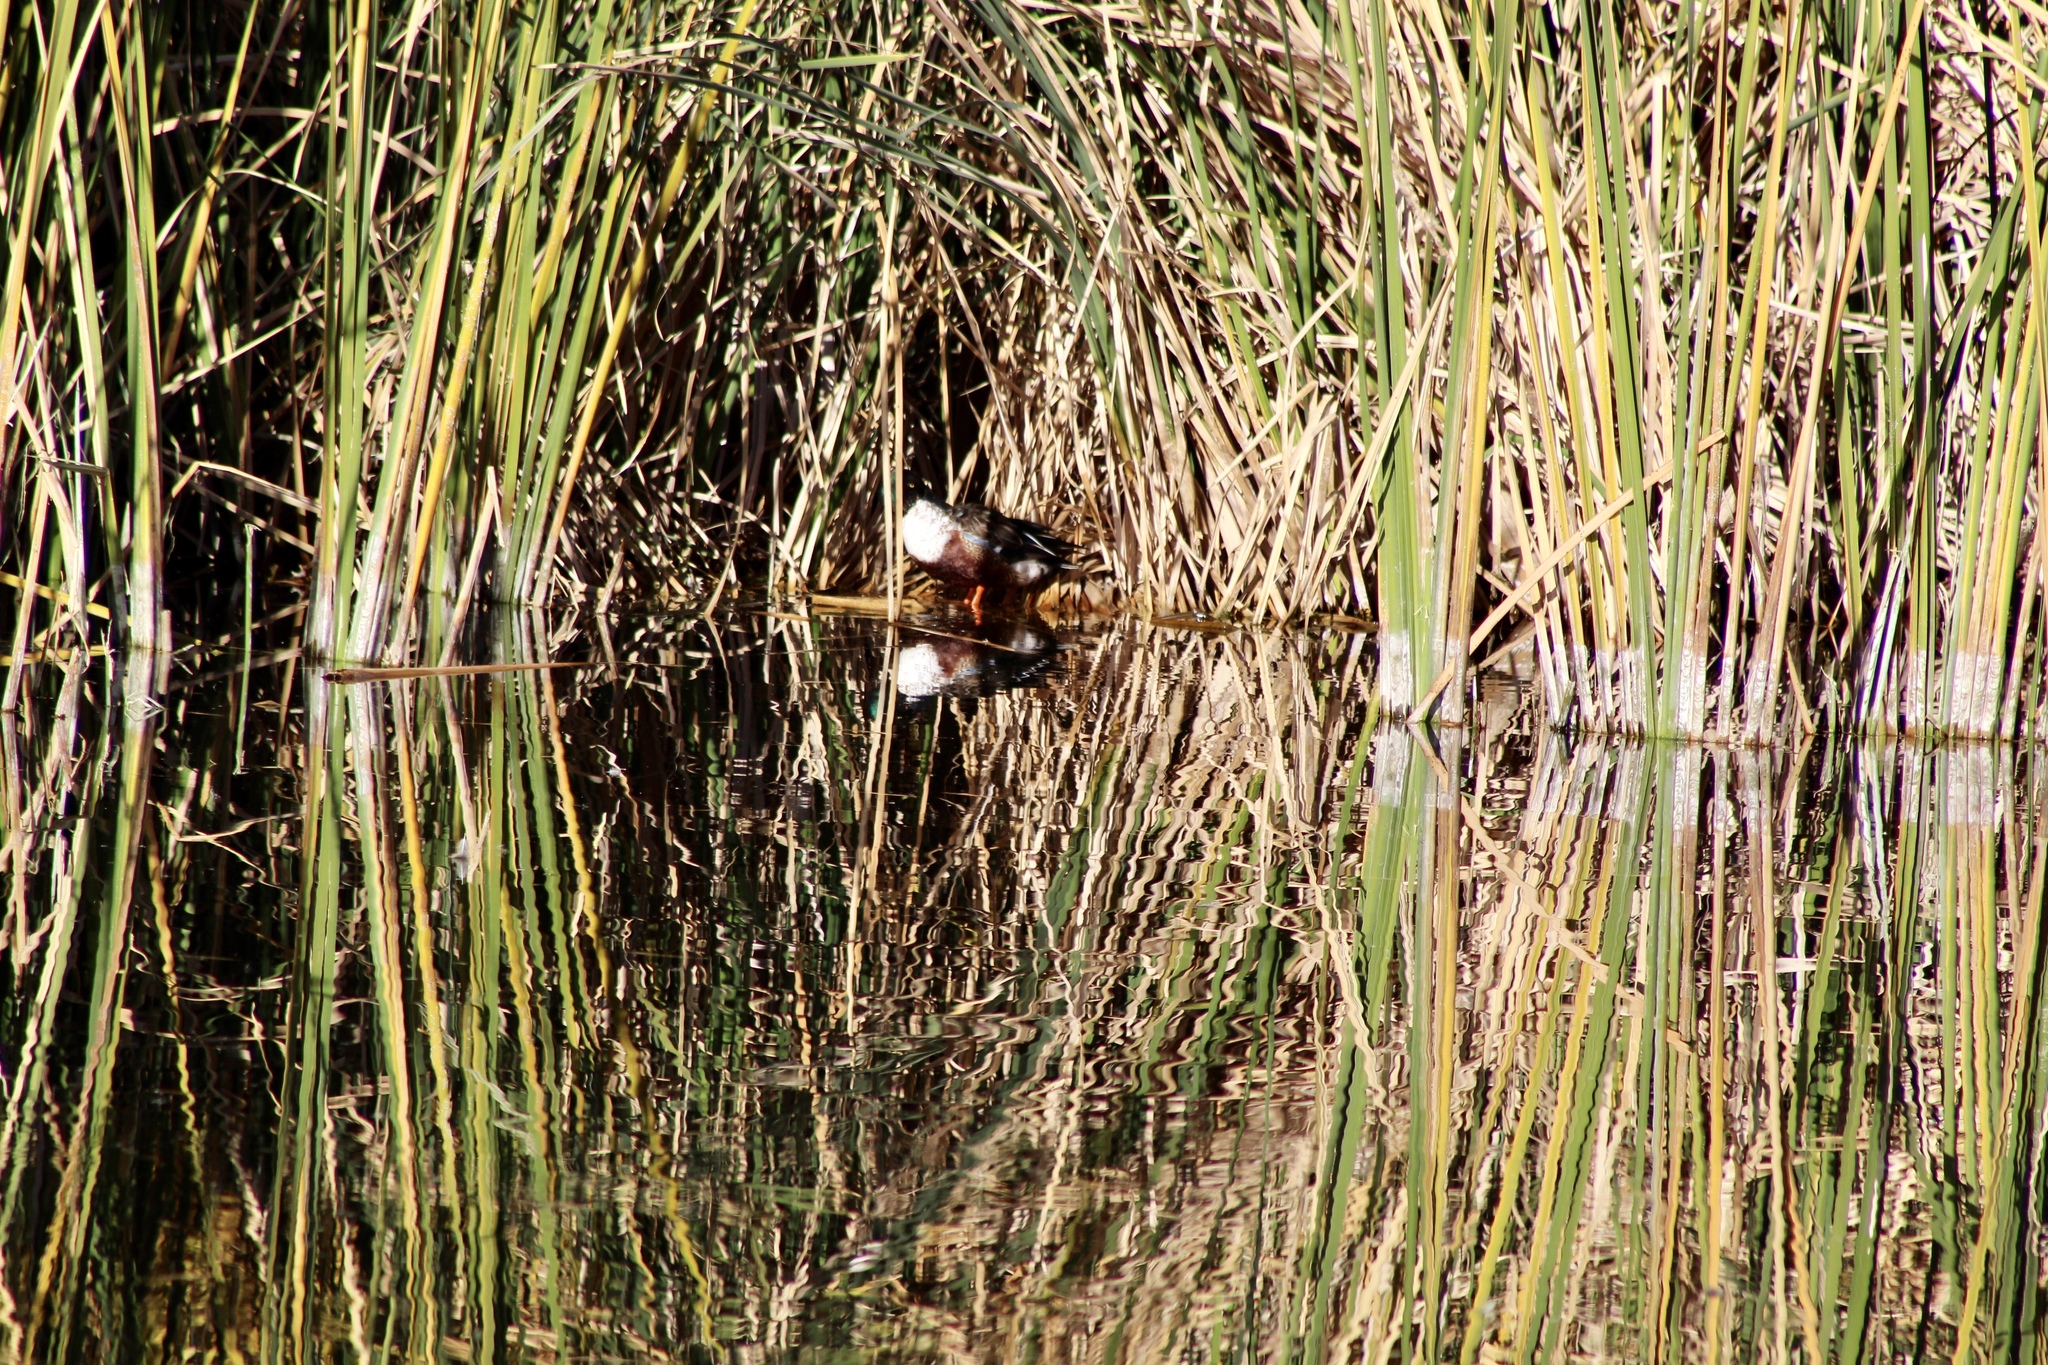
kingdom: Animalia
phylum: Chordata
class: Aves
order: Anseriformes
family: Anatidae
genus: Spatula
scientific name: Spatula clypeata
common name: Northern shoveler
